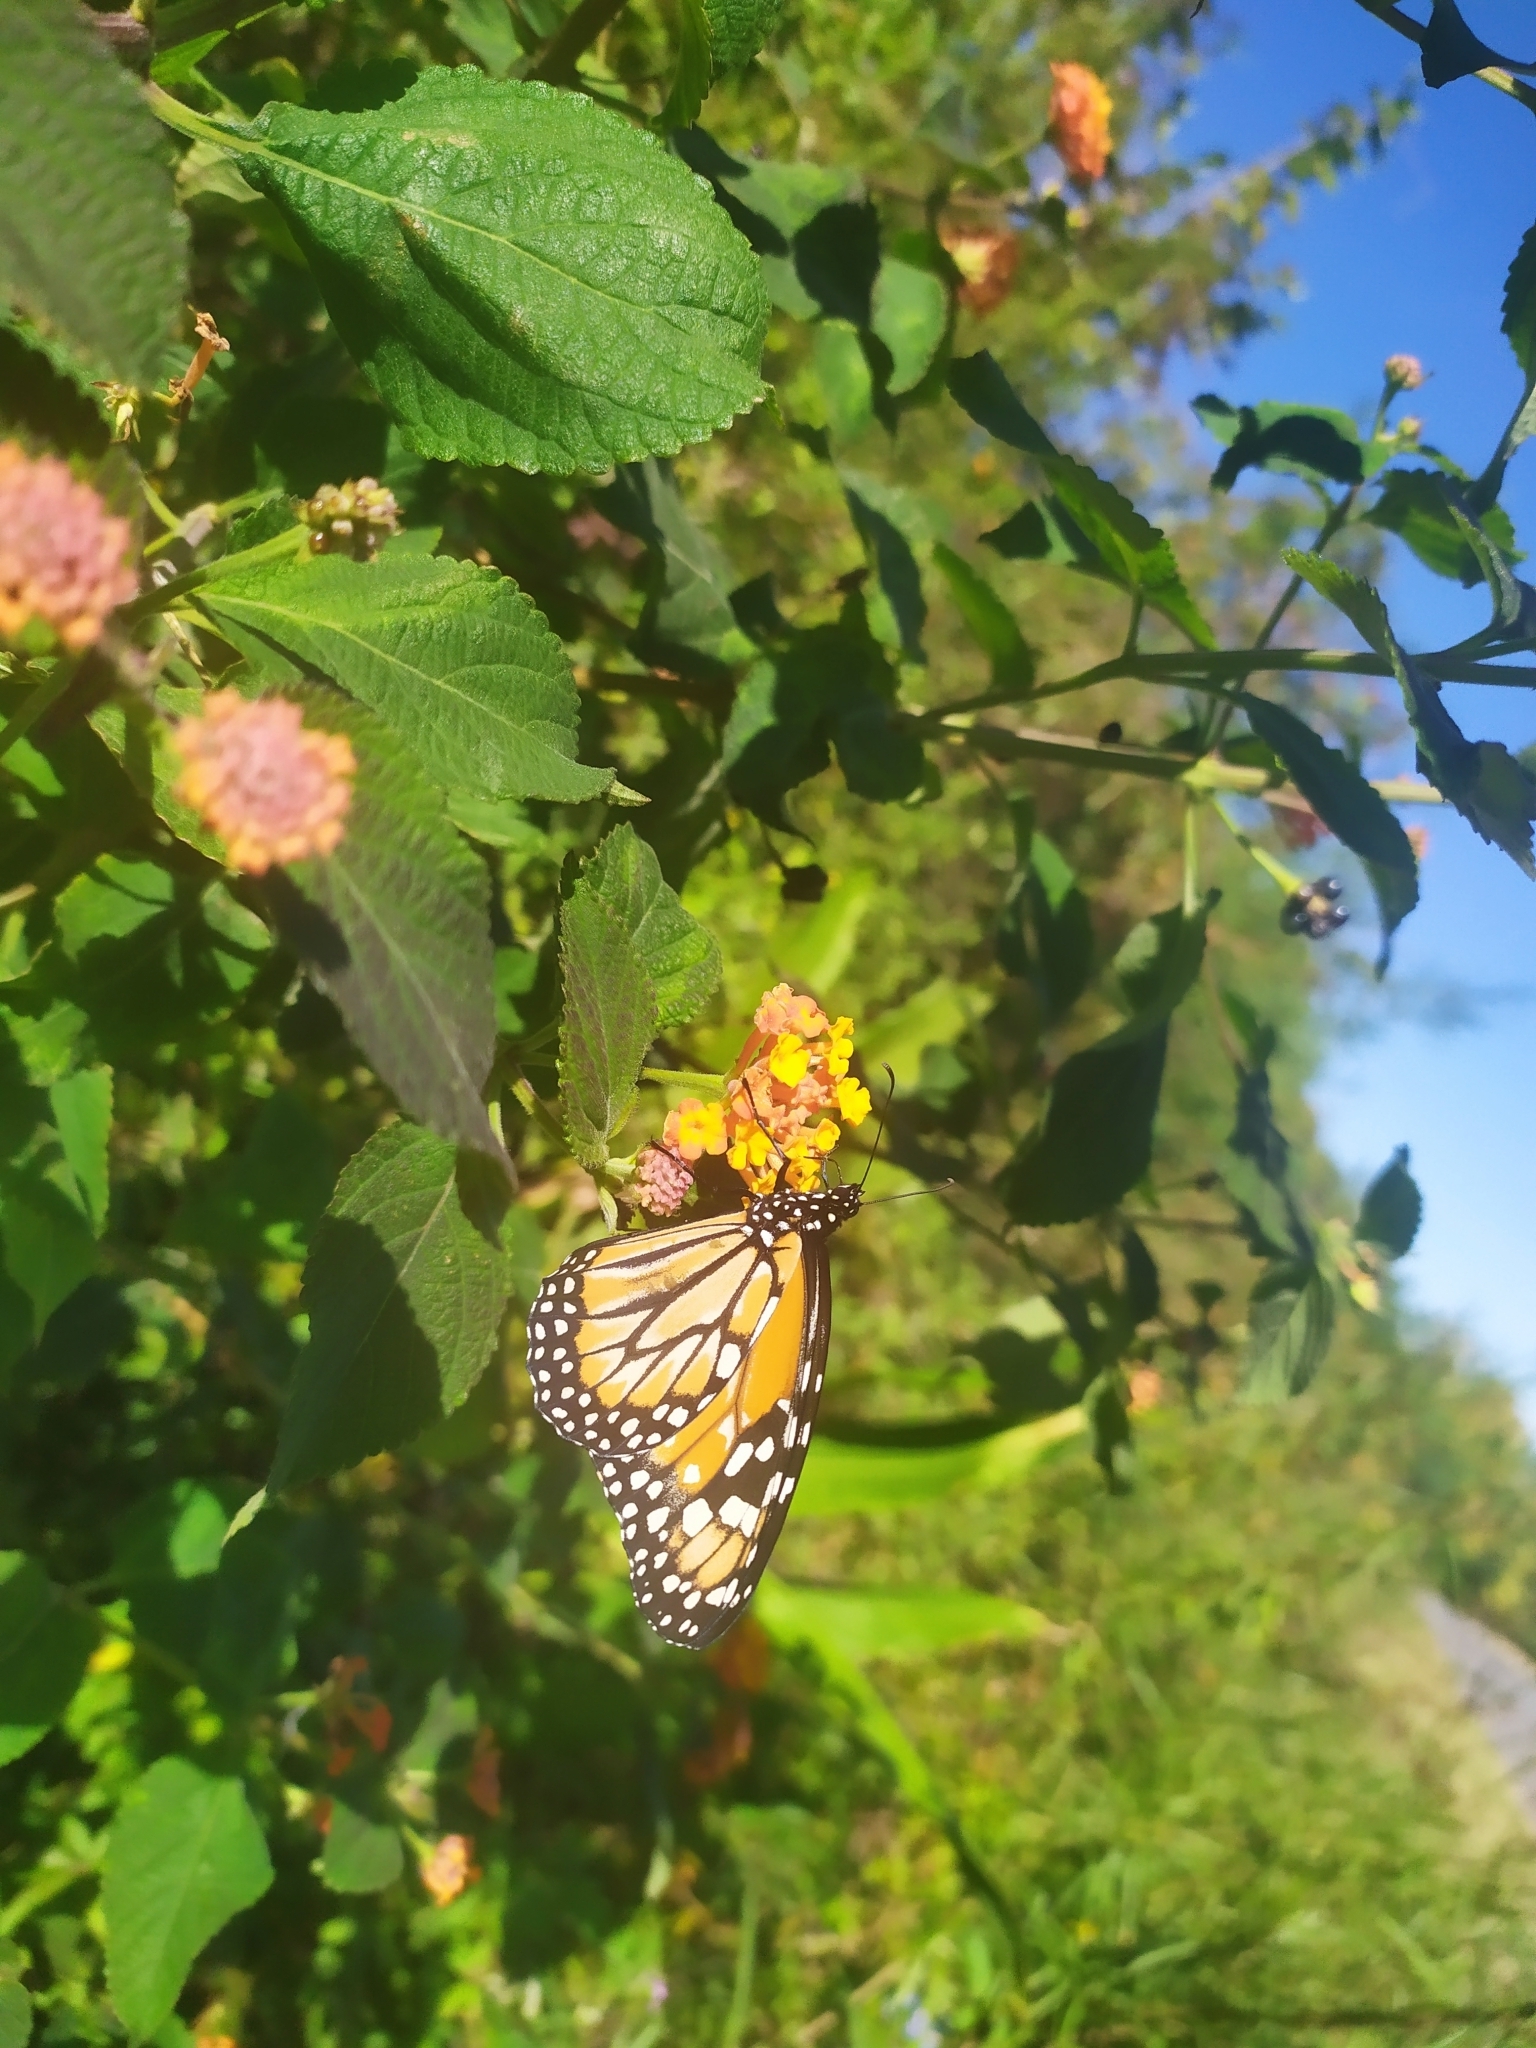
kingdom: Animalia
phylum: Arthropoda
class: Insecta
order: Lepidoptera
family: Nymphalidae
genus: Danaus
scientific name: Danaus erippus
